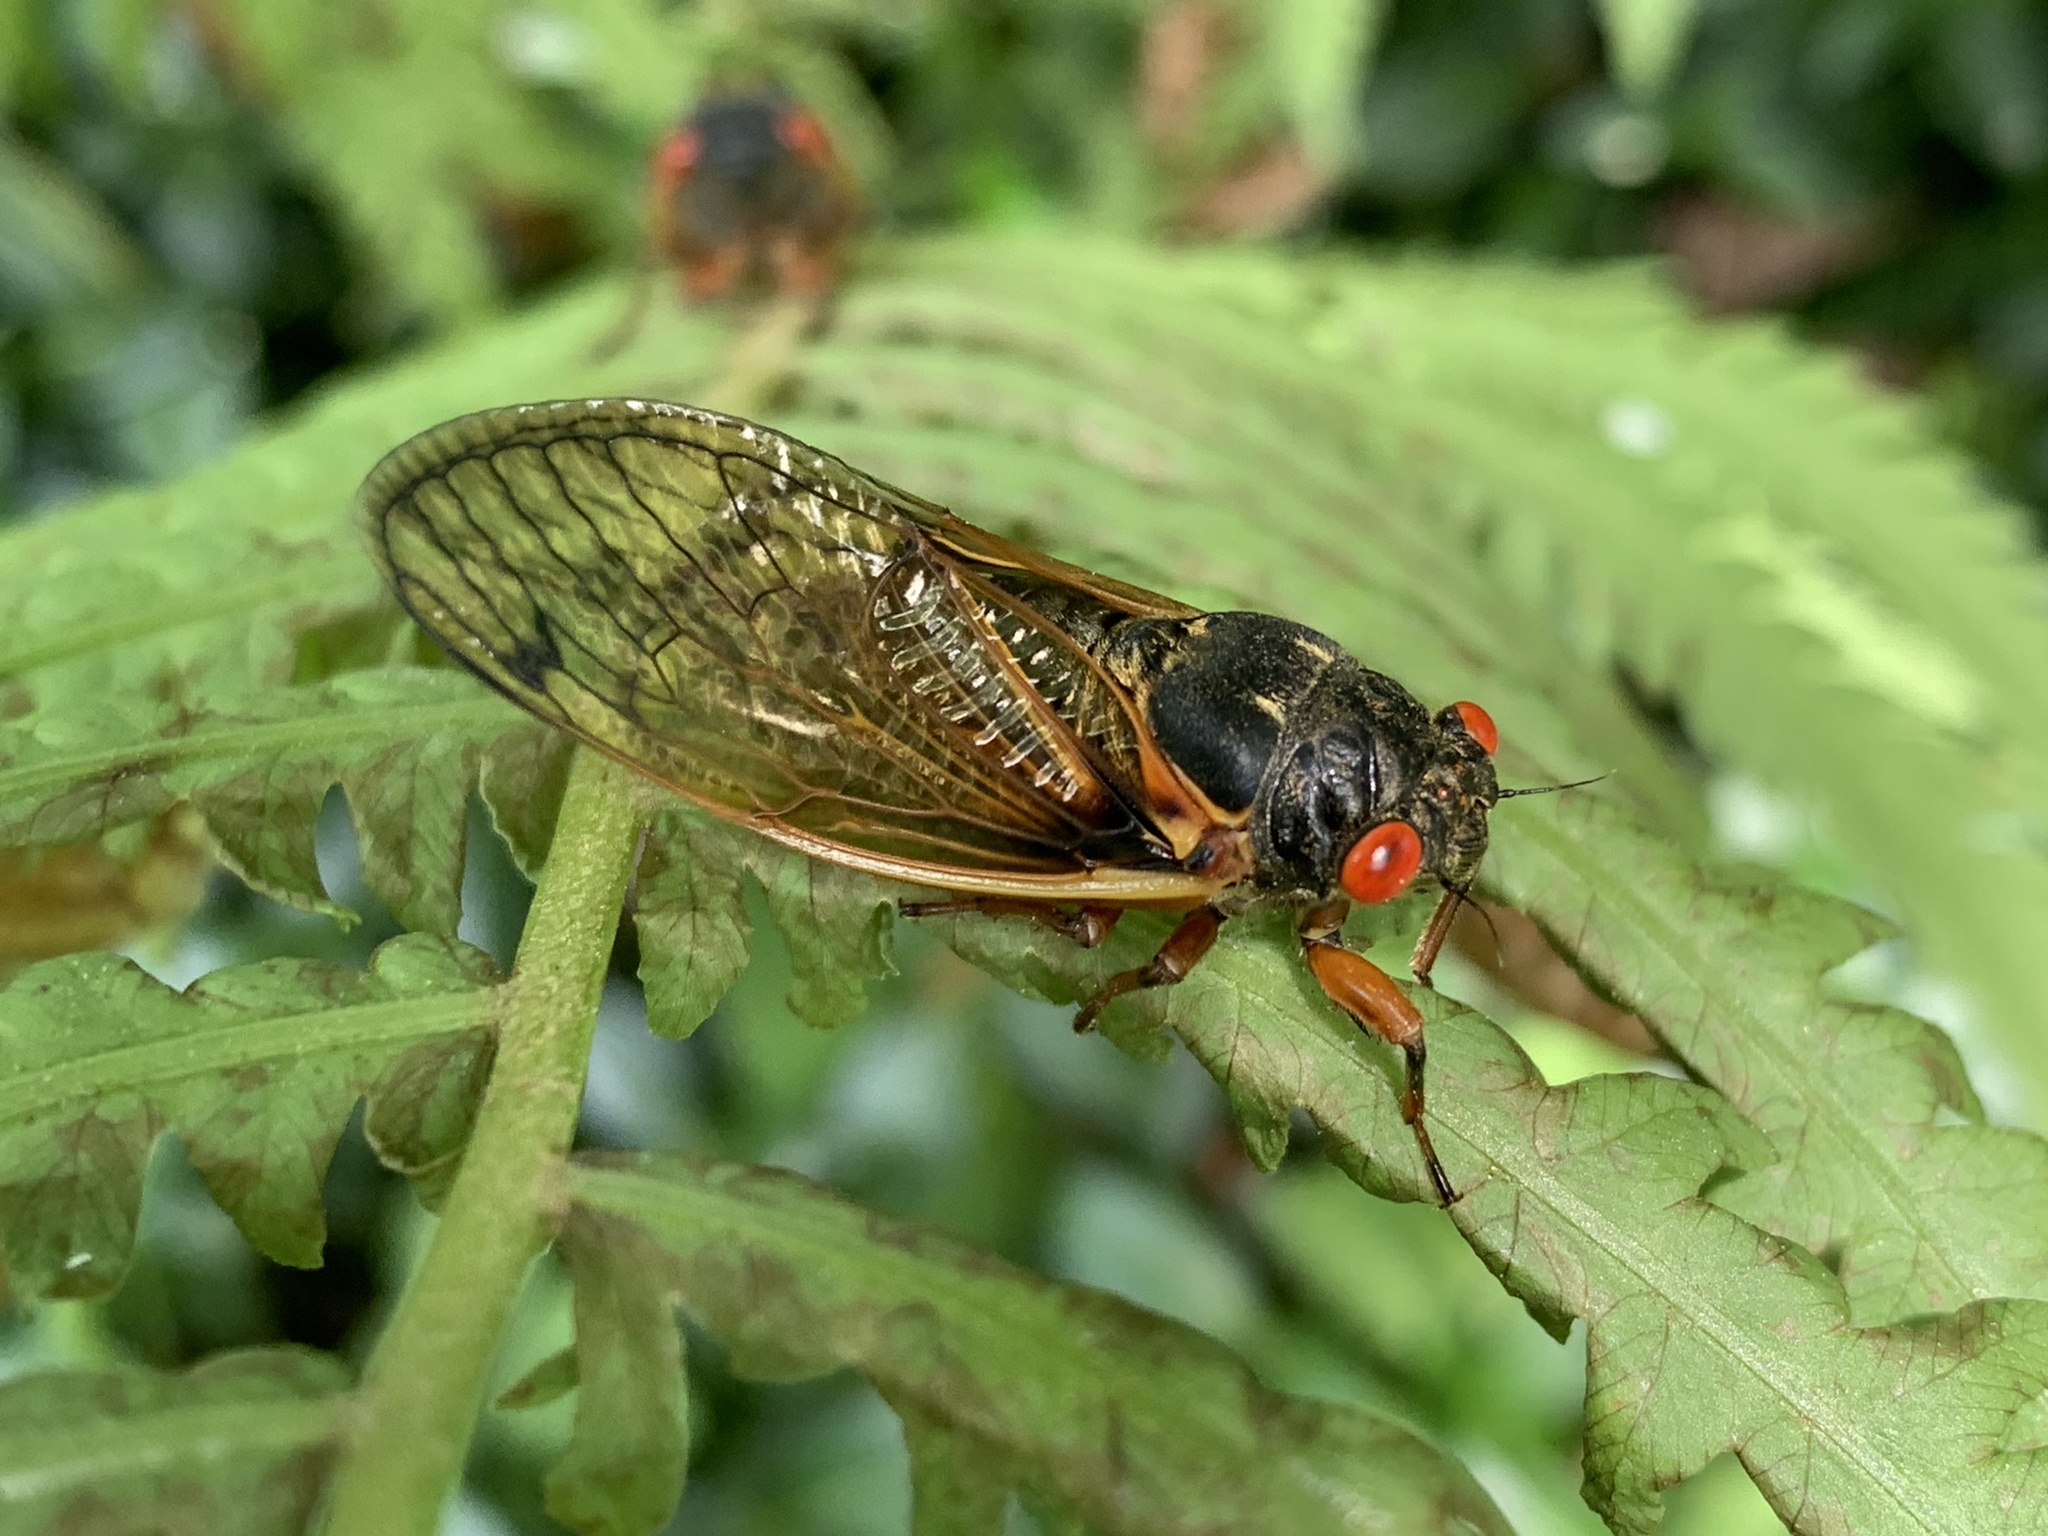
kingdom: Animalia
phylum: Arthropoda
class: Insecta
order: Hemiptera
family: Cicadidae
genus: Magicicada
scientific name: Magicicada
